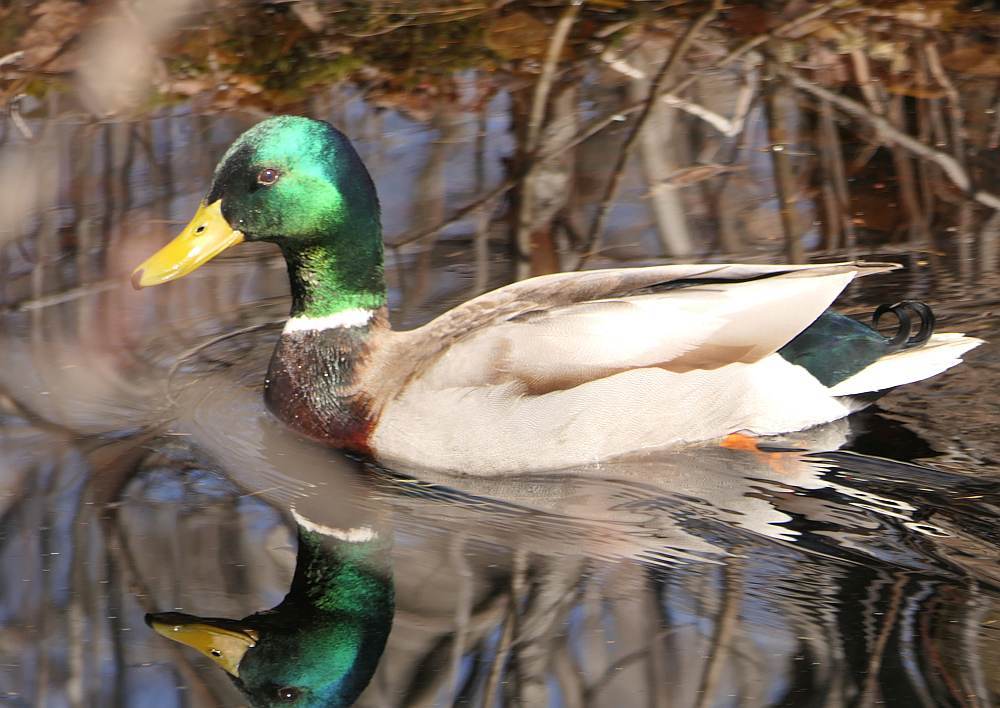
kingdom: Animalia
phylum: Chordata
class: Aves
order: Anseriformes
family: Anatidae
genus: Anas
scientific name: Anas platyrhynchos
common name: Mallard
